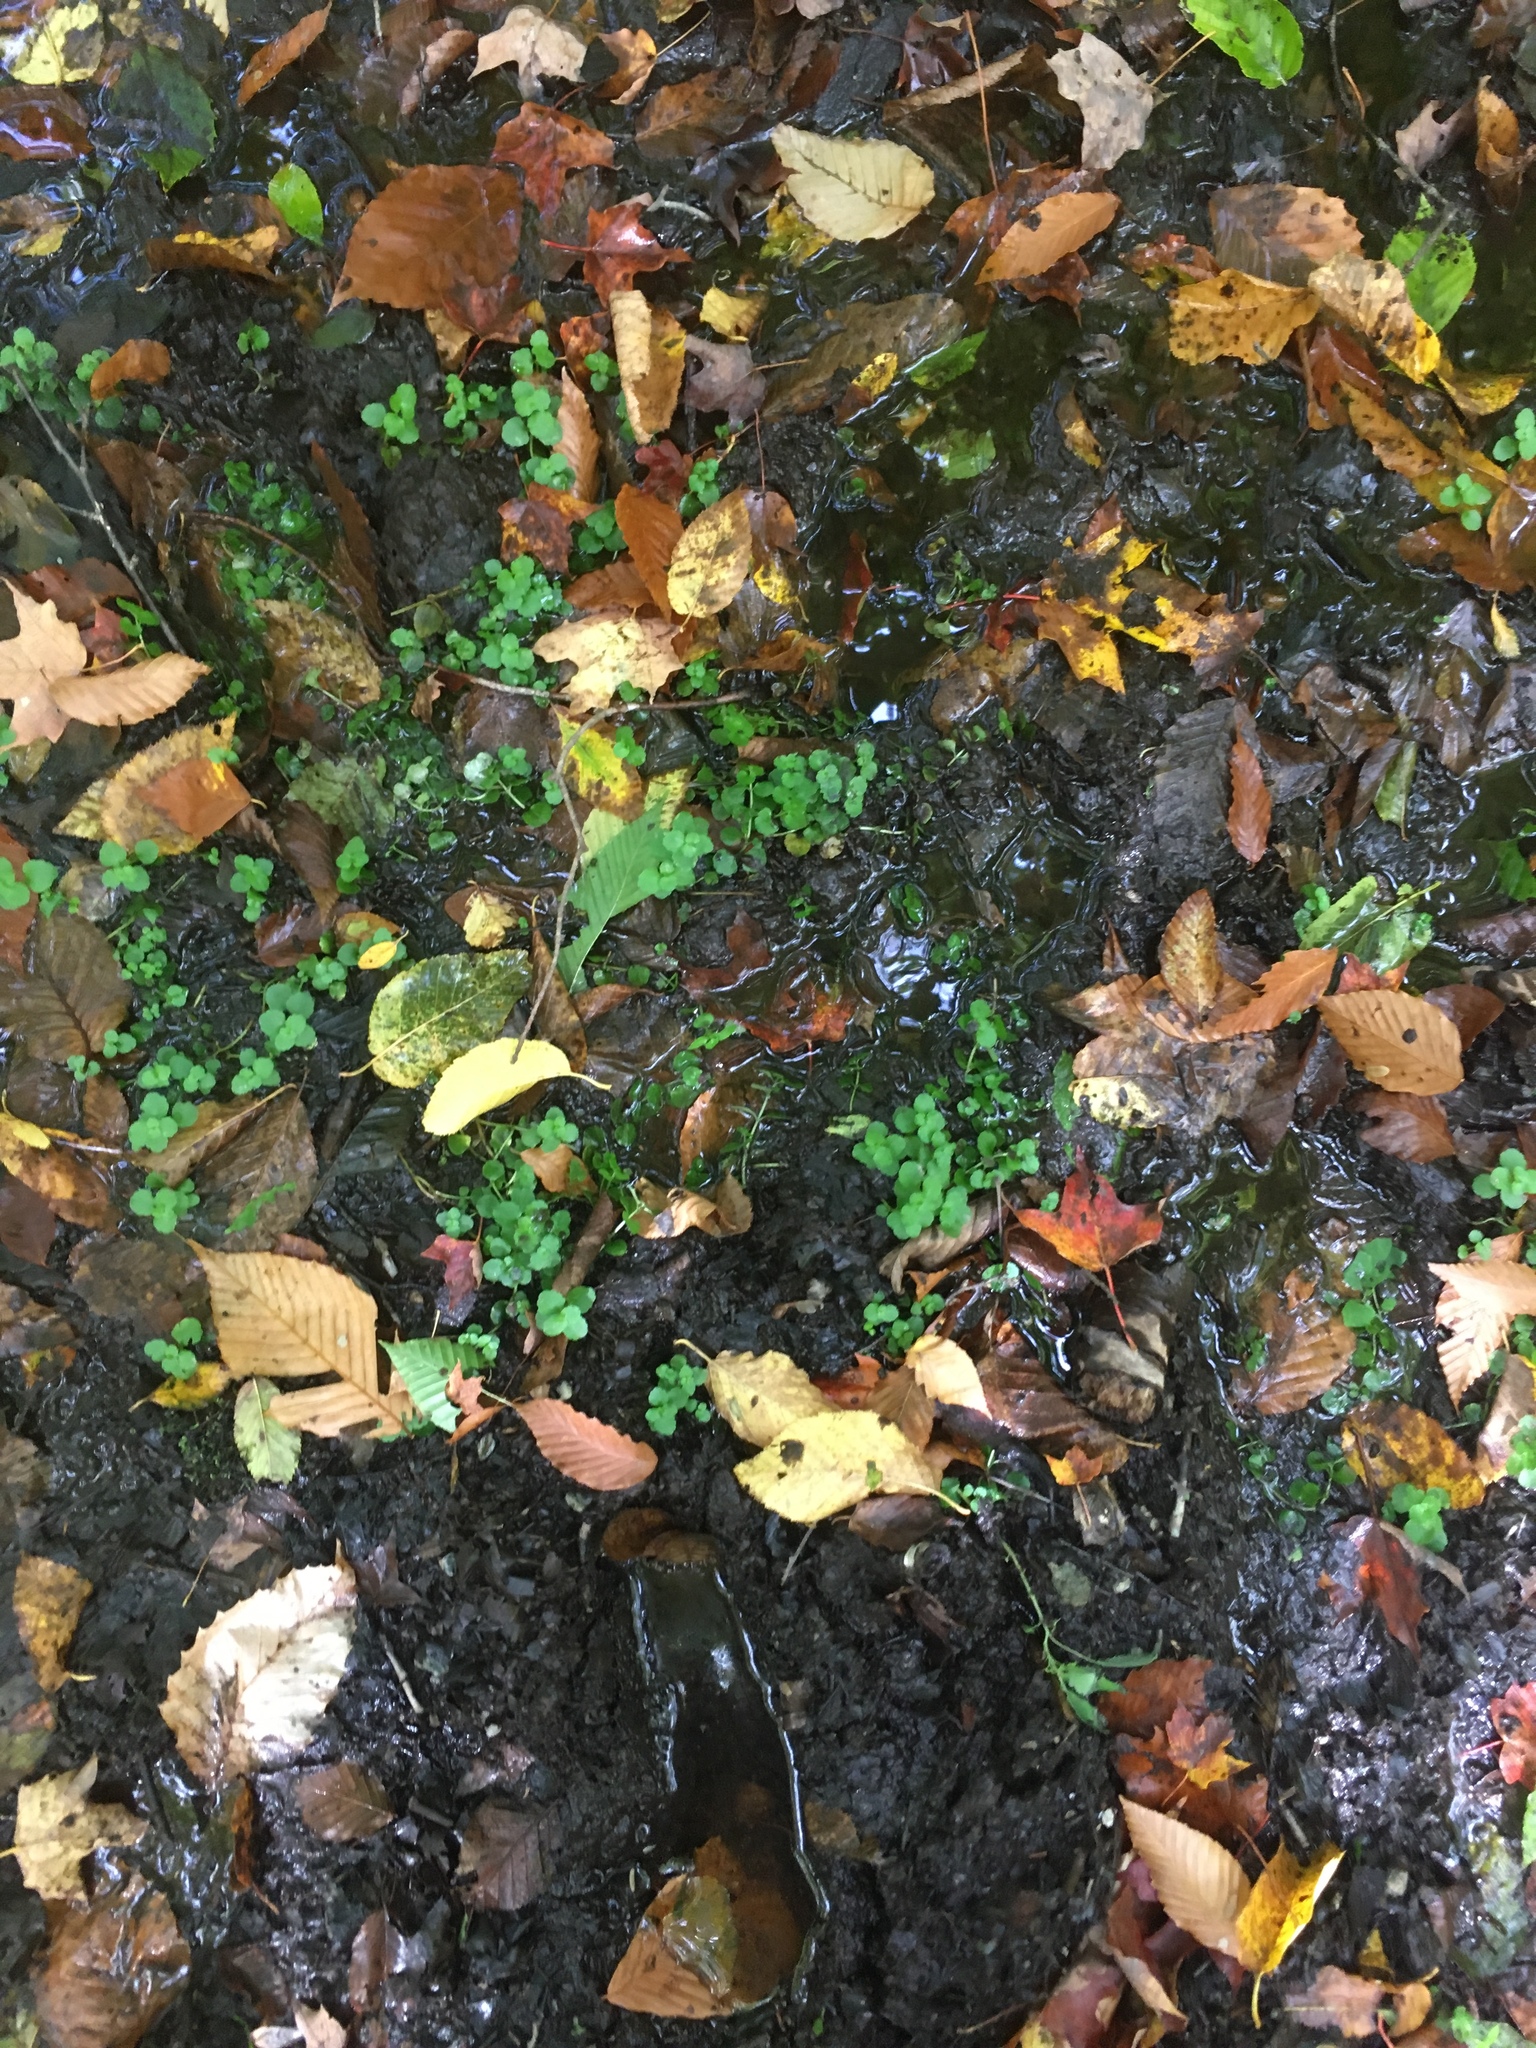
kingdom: Plantae
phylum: Tracheophyta
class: Magnoliopsida
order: Saxifragales
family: Saxifragaceae
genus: Chrysosplenium
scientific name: Chrysosplenium americanum
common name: American golden-saxifrage
